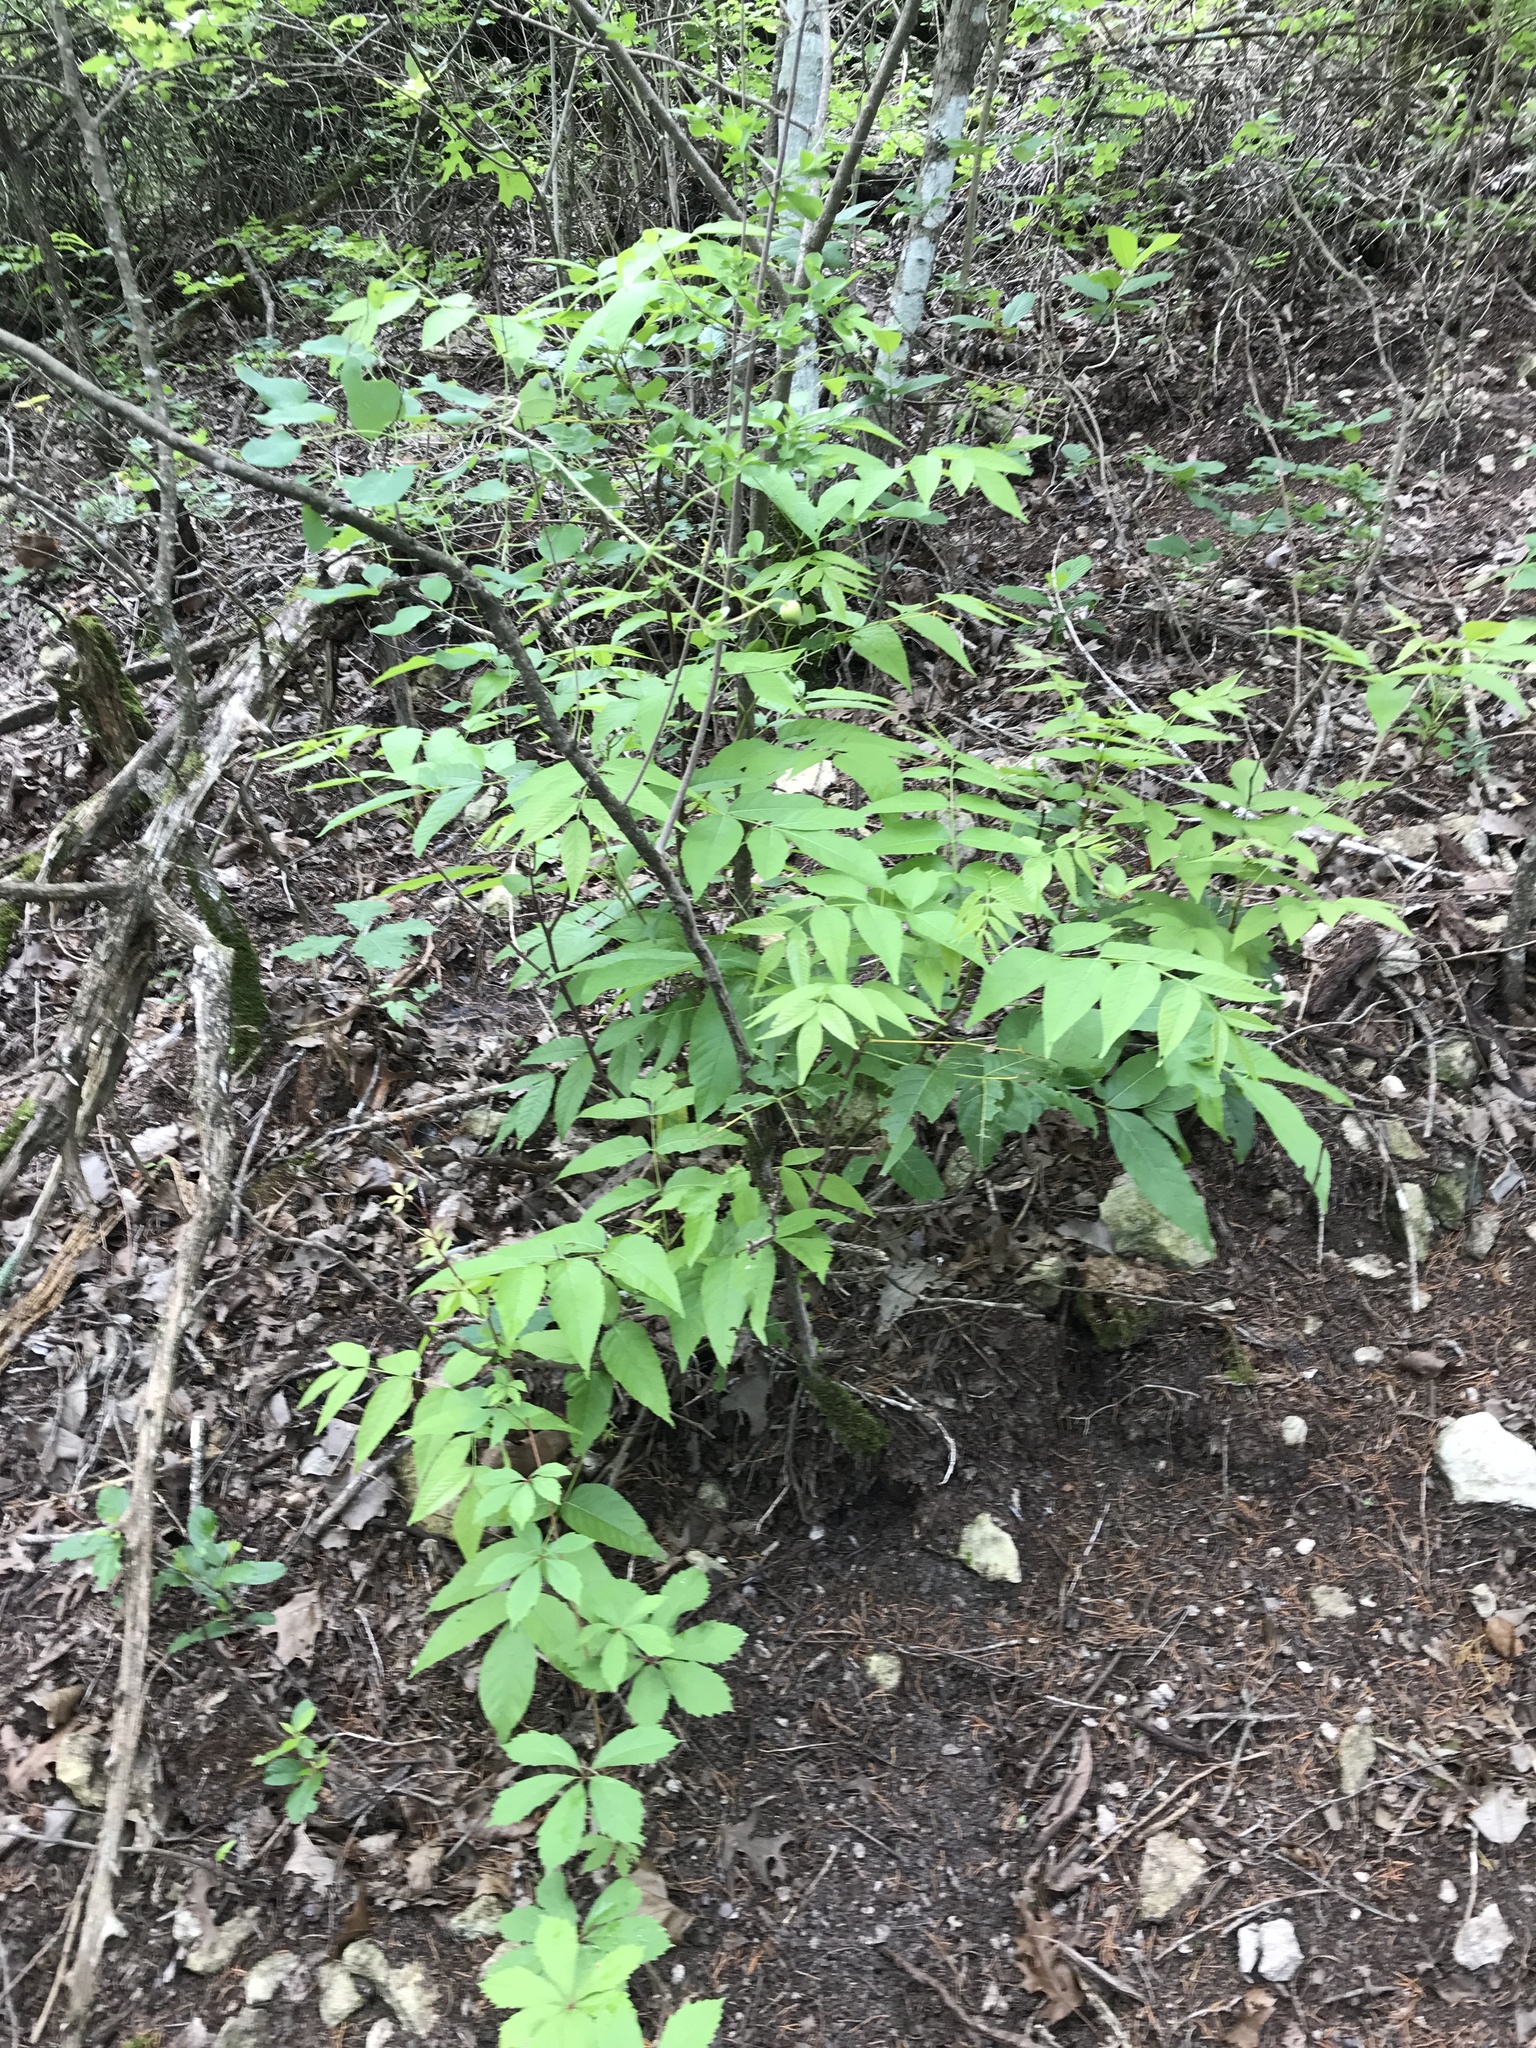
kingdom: Plantae
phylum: Tracheophyta
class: Magnoliopsida
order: Sapindales
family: Sapindaceae
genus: Ungnadia
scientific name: Ungnadia speciosa
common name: Texas-buckeye
